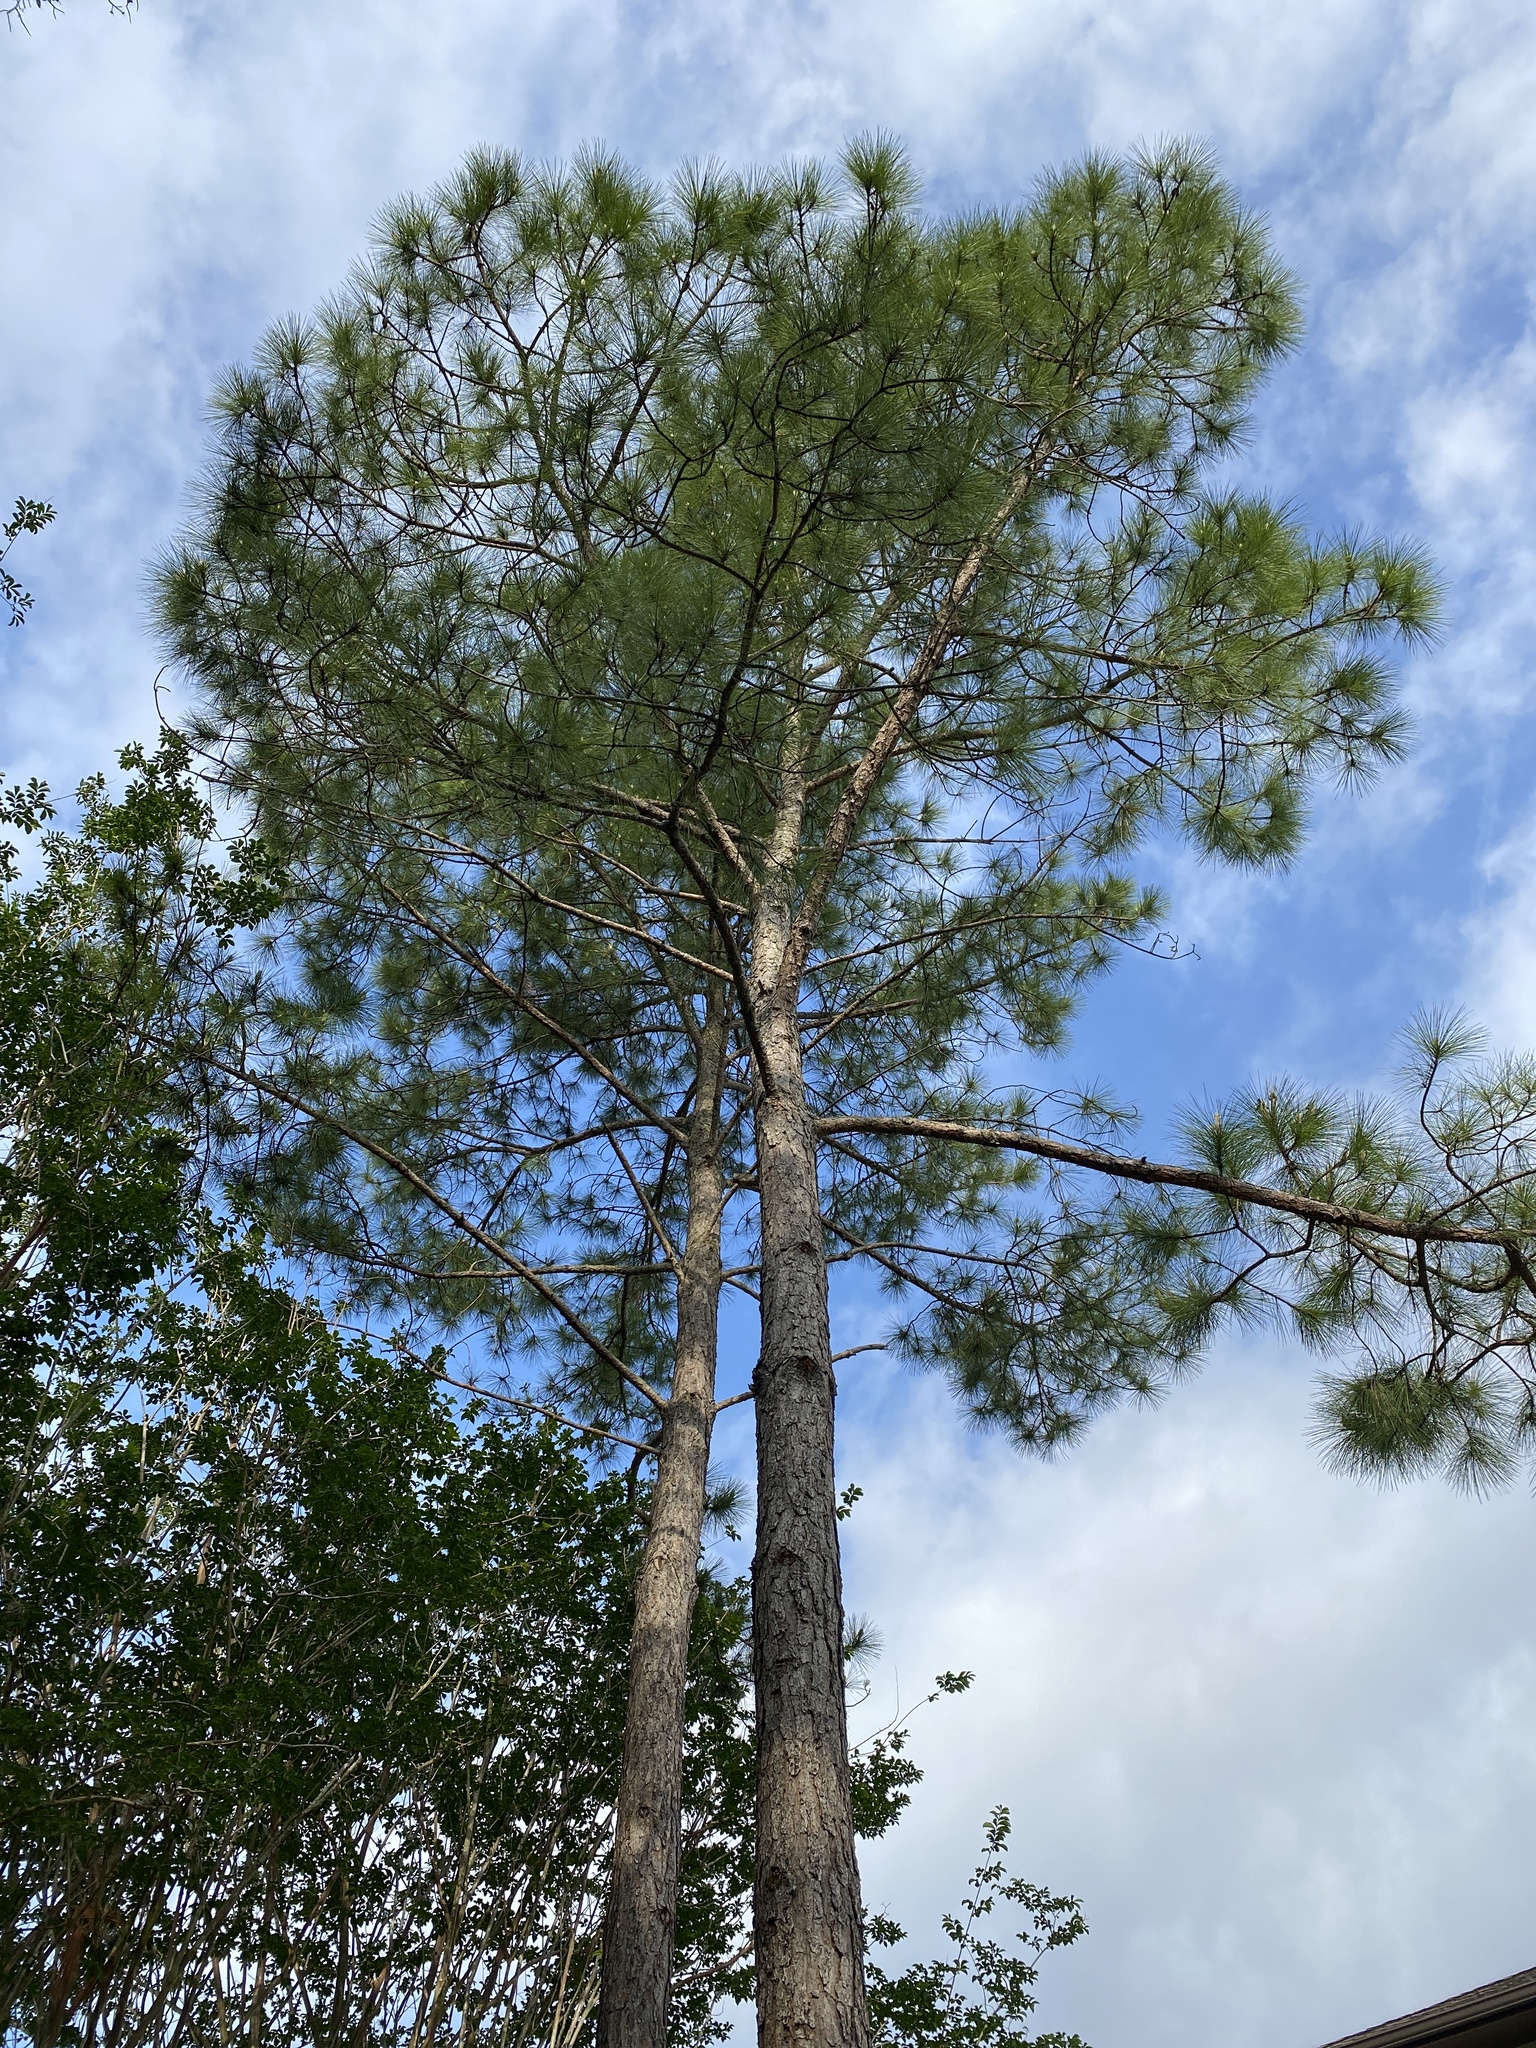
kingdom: Plantae
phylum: Tracheophyta
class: Pinopsida
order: Pinales
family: Pinaceae
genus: Pinus
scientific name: Pinus taeda
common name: Loblolly pine
